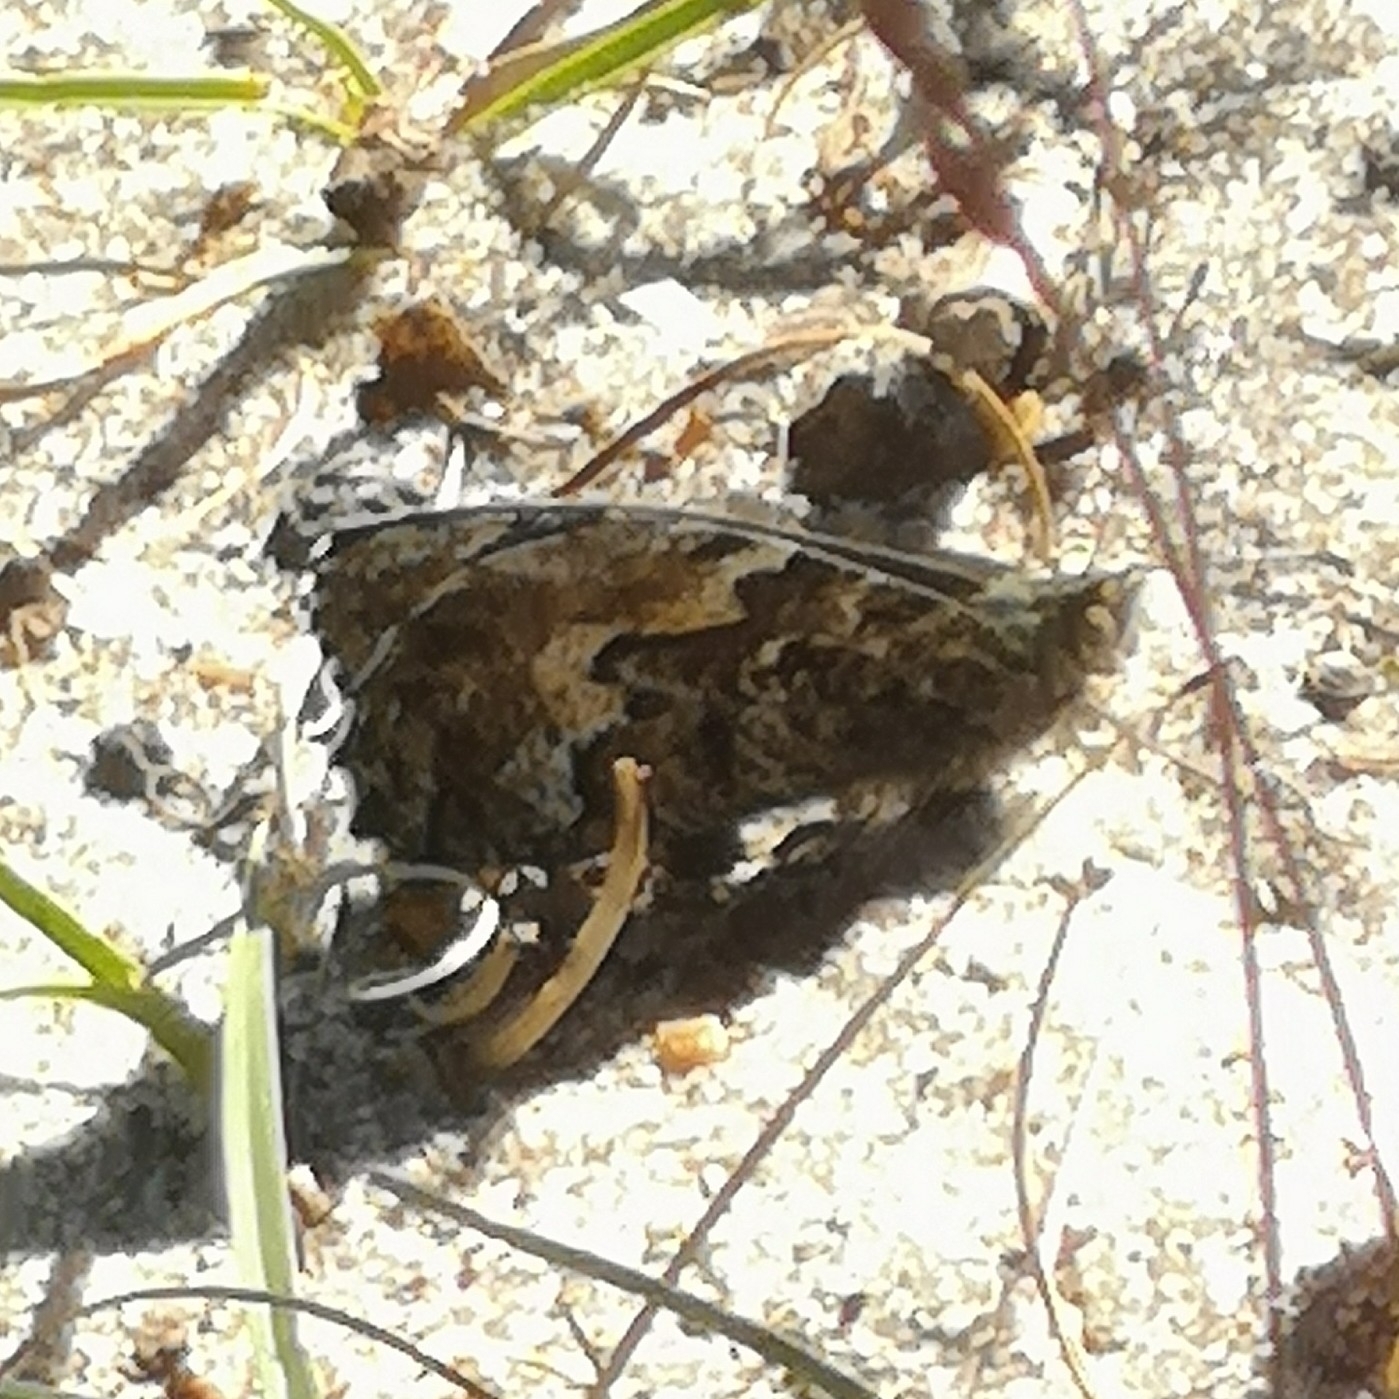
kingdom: Animalia
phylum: Arthropoda
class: Insecta
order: Lepidoptera
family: Nymphalidae
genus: Hipparchia
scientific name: Hipparchia semele
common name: Grayling
